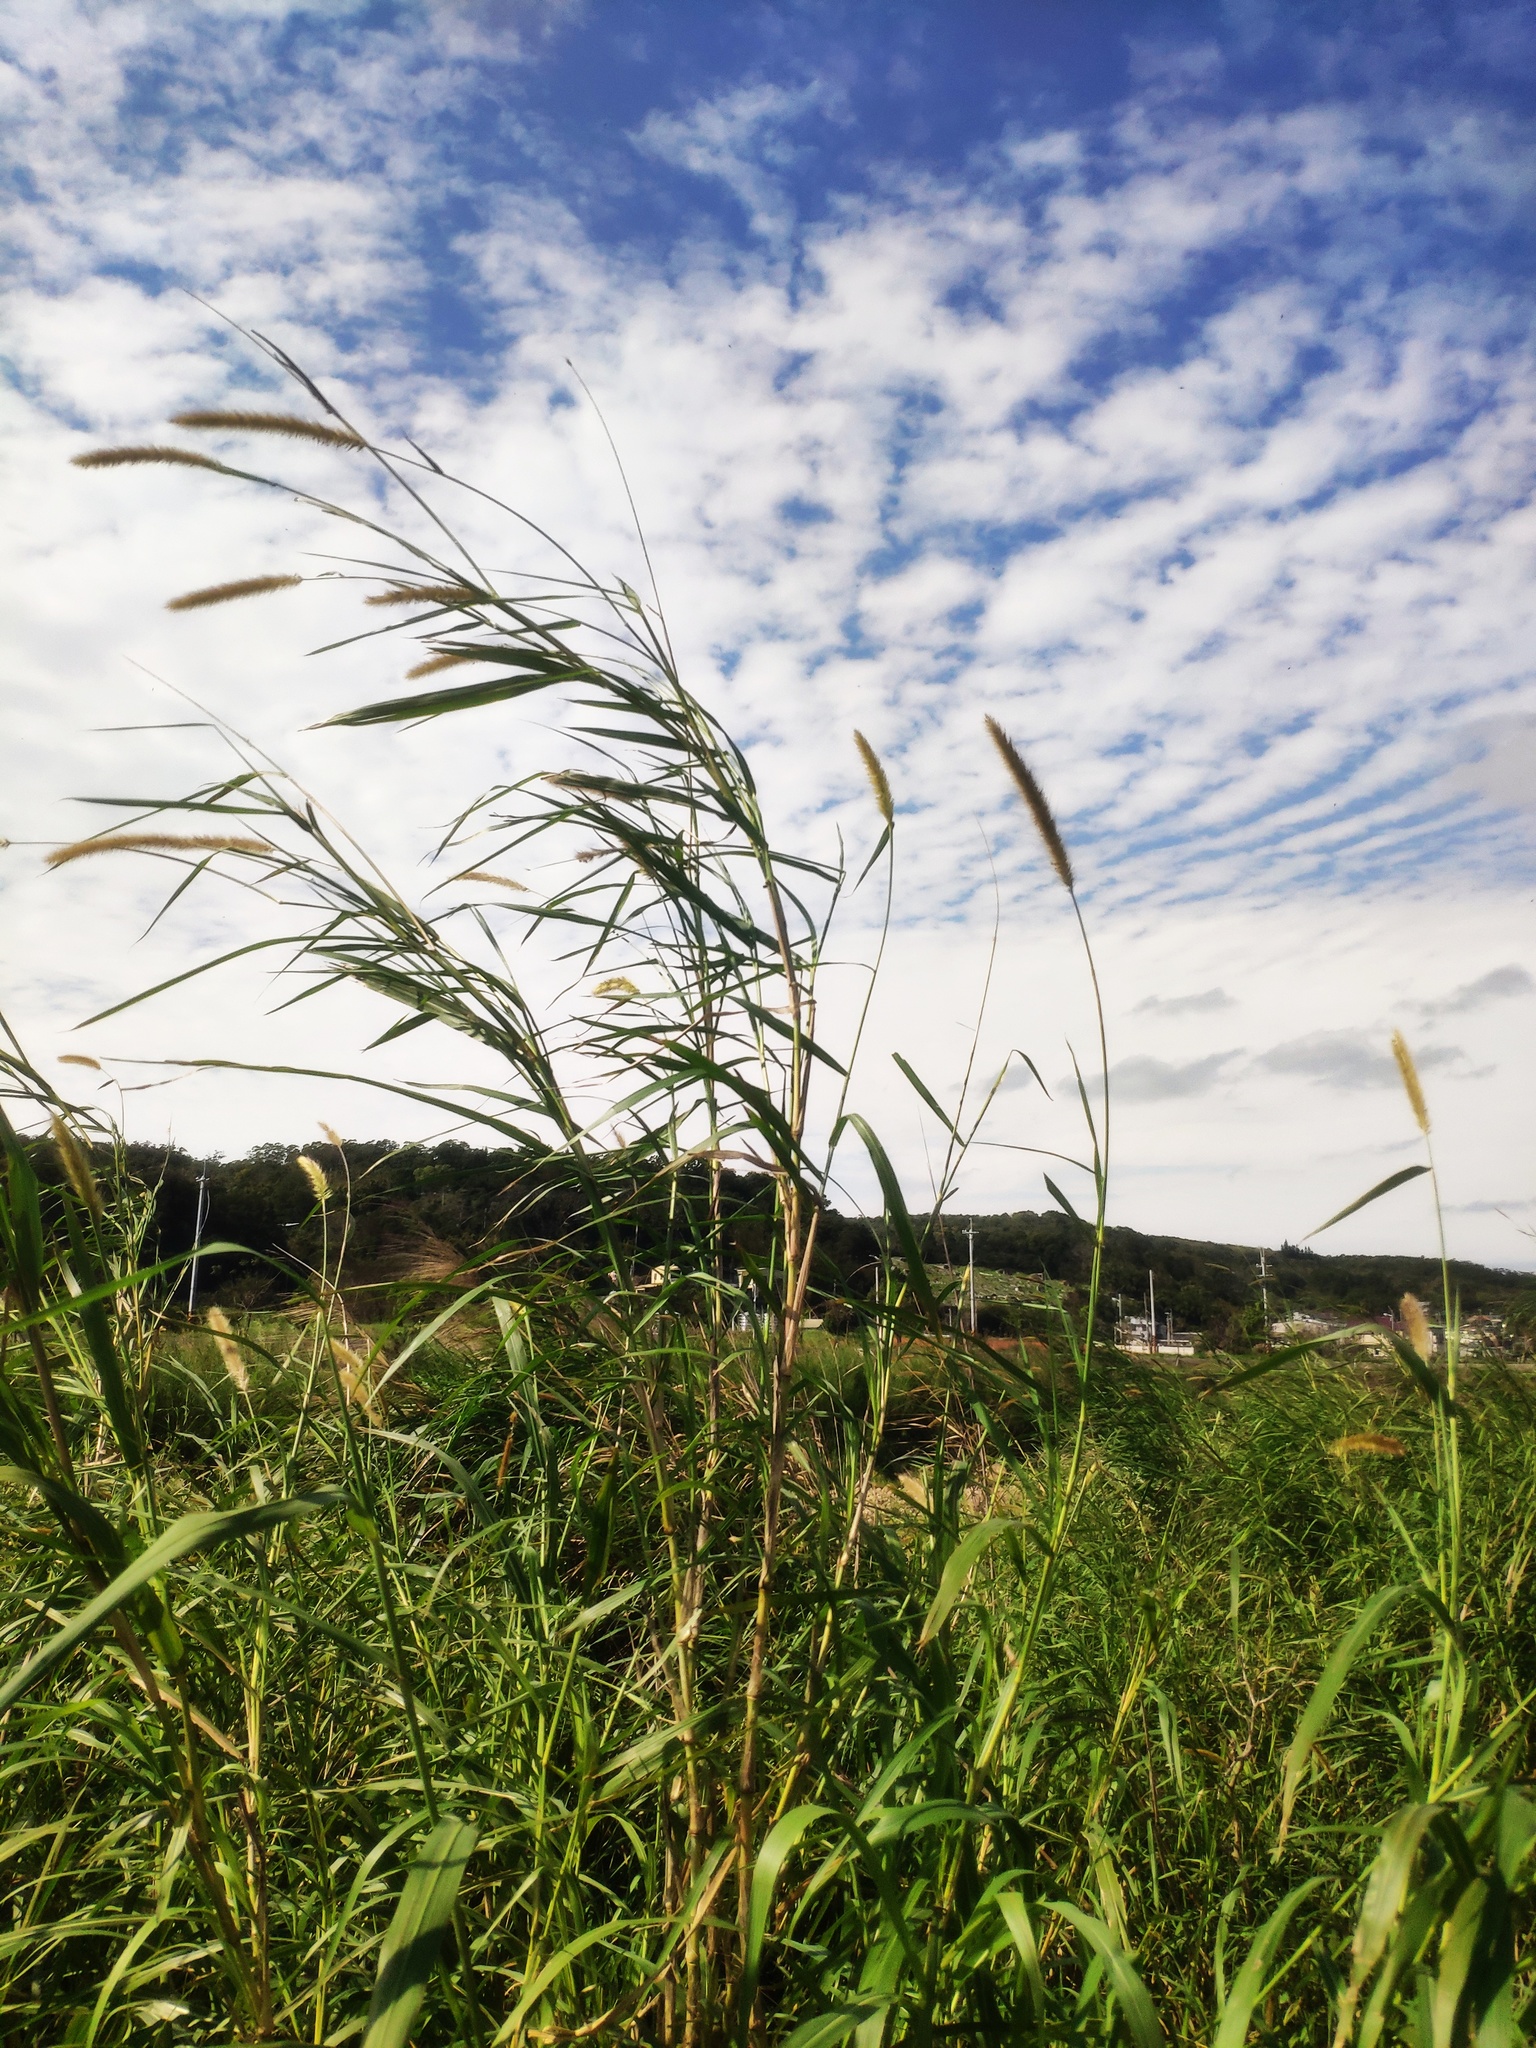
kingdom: Plantae
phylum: Tracheophyta
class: Liliopsida
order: Poales
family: Poaceae
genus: Cenchrus
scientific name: Cenchrus purpureus
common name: Elephant grass
